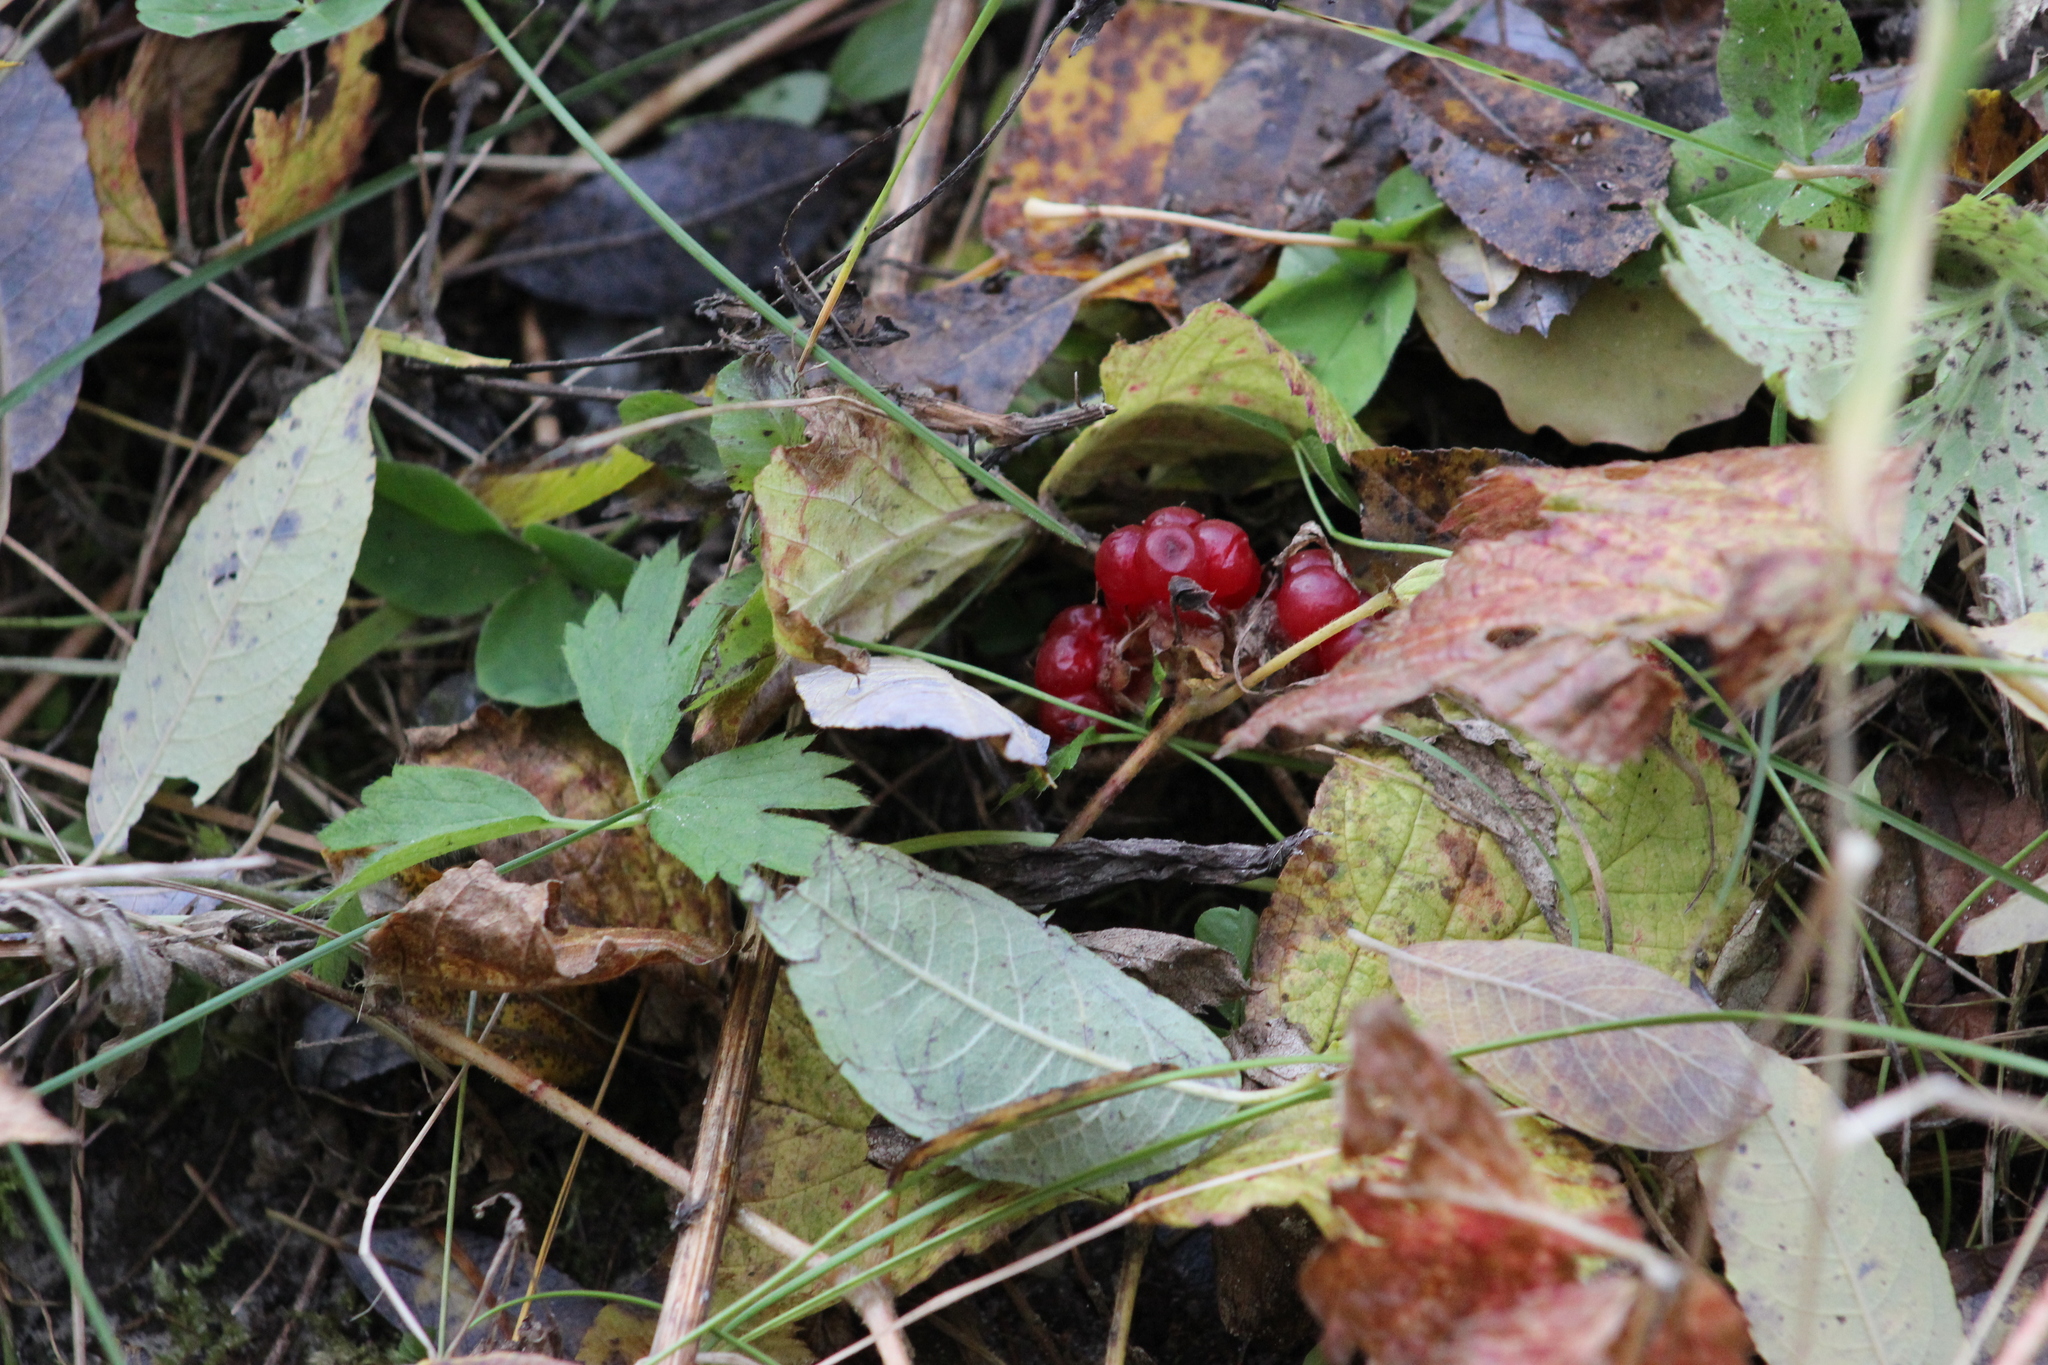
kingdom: Plantae
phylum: Tracheophyta
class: Magnoliopsida
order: Rosales
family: Rosaceae
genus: Rubus
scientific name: Rubus saxatilis
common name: Stone bramble
